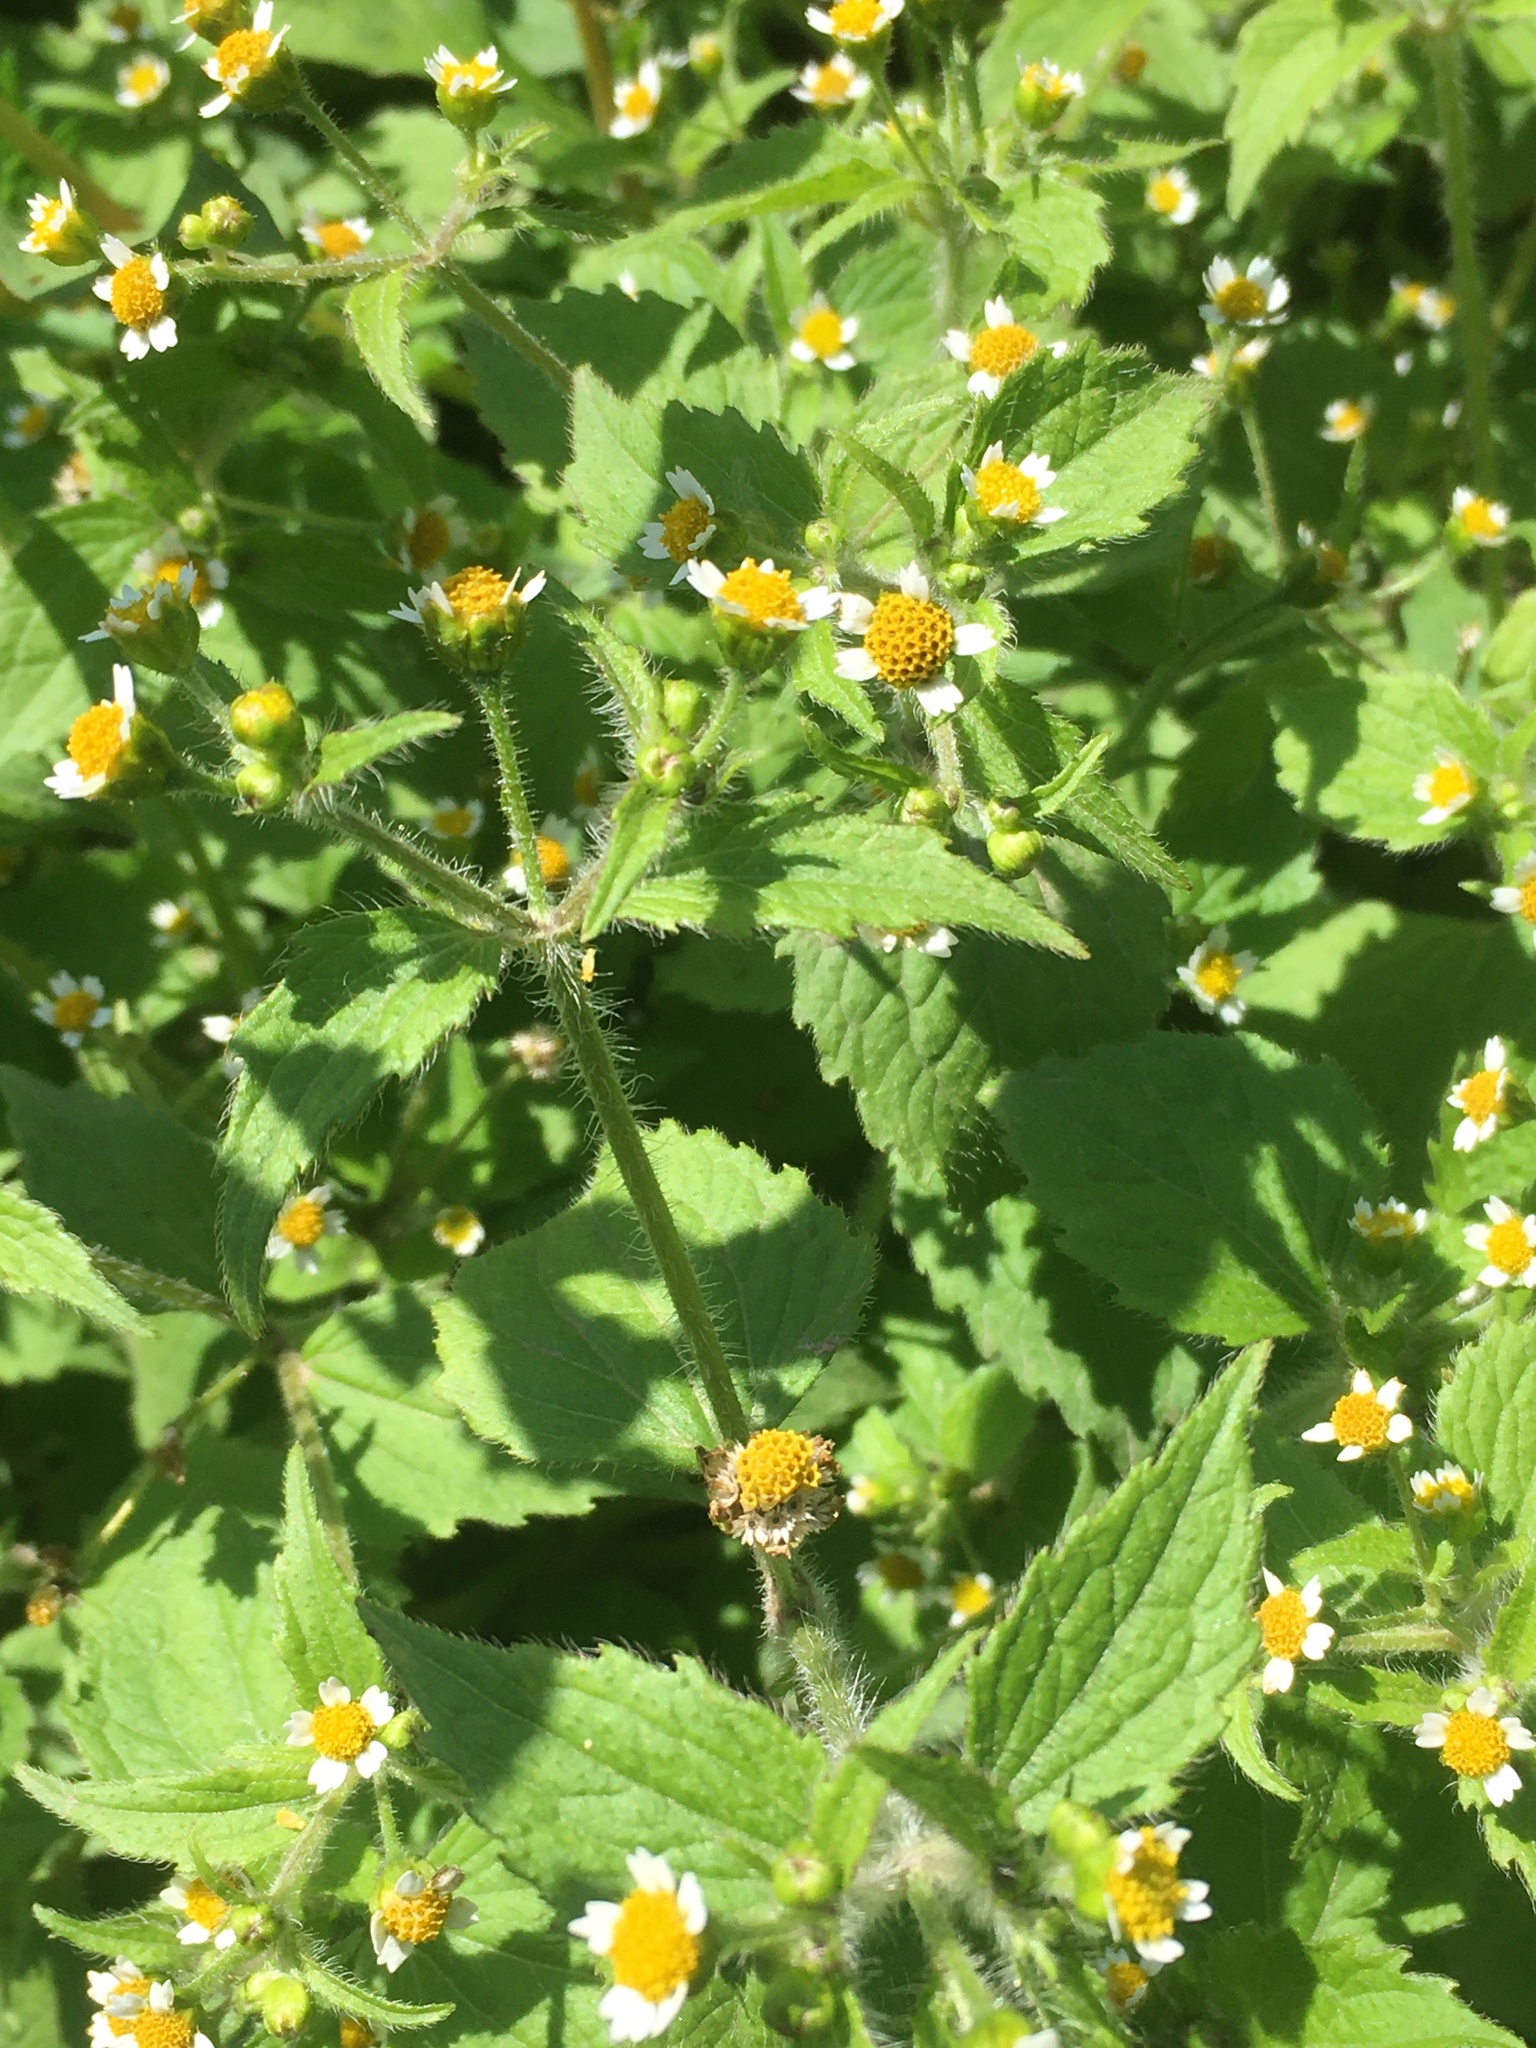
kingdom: Plantae
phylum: Tracheophyta
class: Magnoliopsida
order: Asterales
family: Asteraceae
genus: Galinsoga
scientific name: Galinsoga quadriradiata
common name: Shaggy soldier
